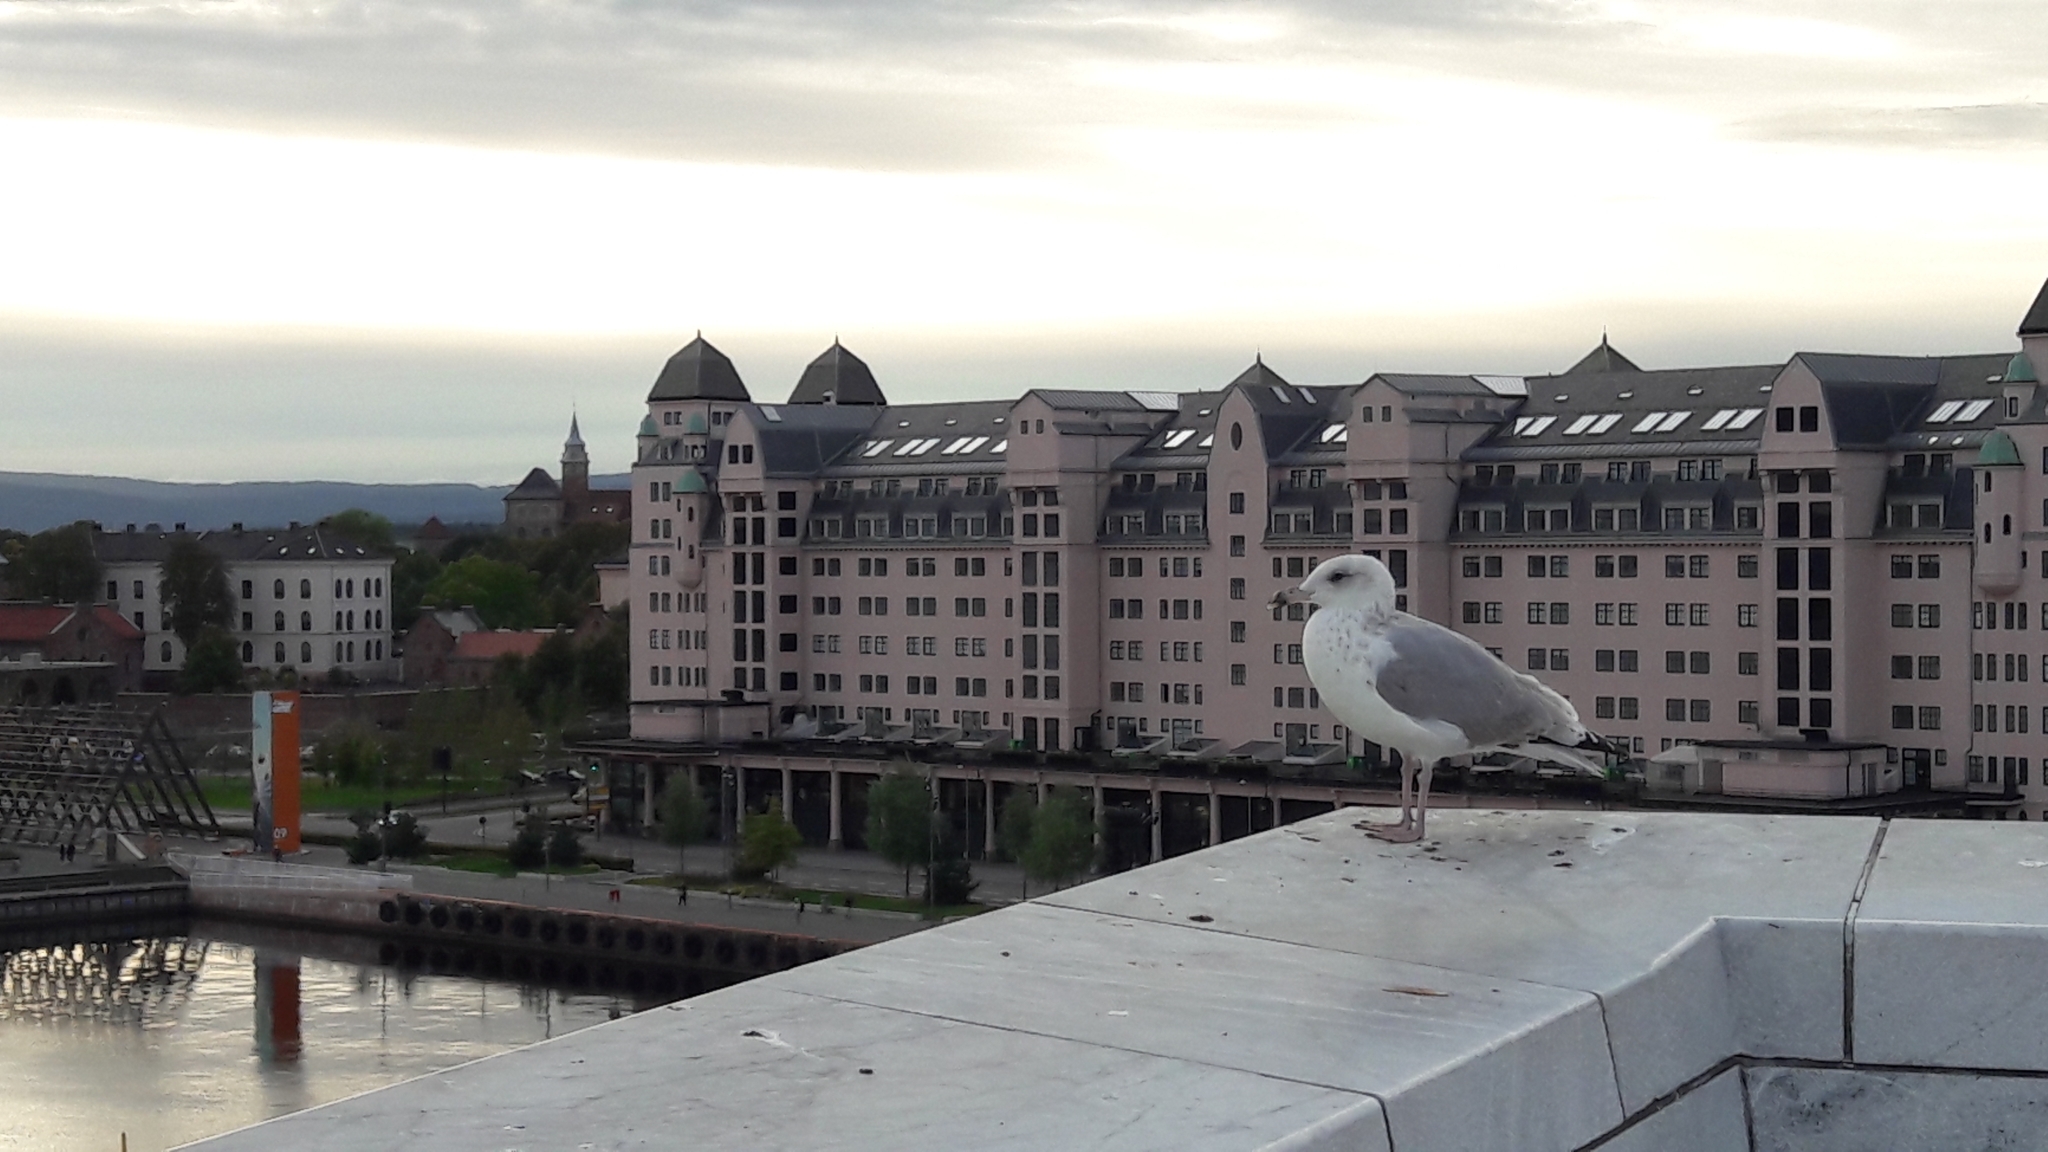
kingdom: Animalia
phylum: Chordata
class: Aves
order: Charadriiformes
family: Laridae
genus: Larus
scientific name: Larus argentatus
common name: Herring gull
